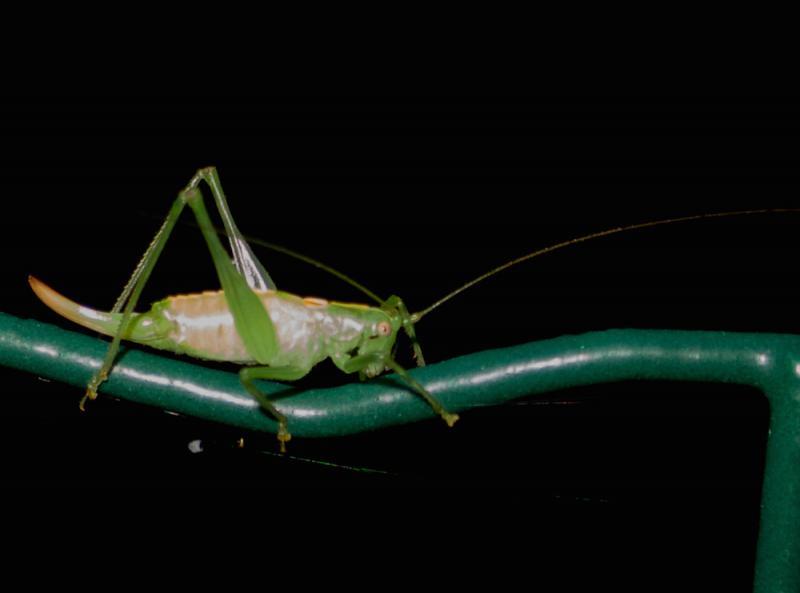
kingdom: Animalia
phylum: Arthropoda
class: Insecta
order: Orthoptera
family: Tettigoniidae
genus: Meconema
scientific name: Meconema meridionale
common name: Southern oak bush-cricket
